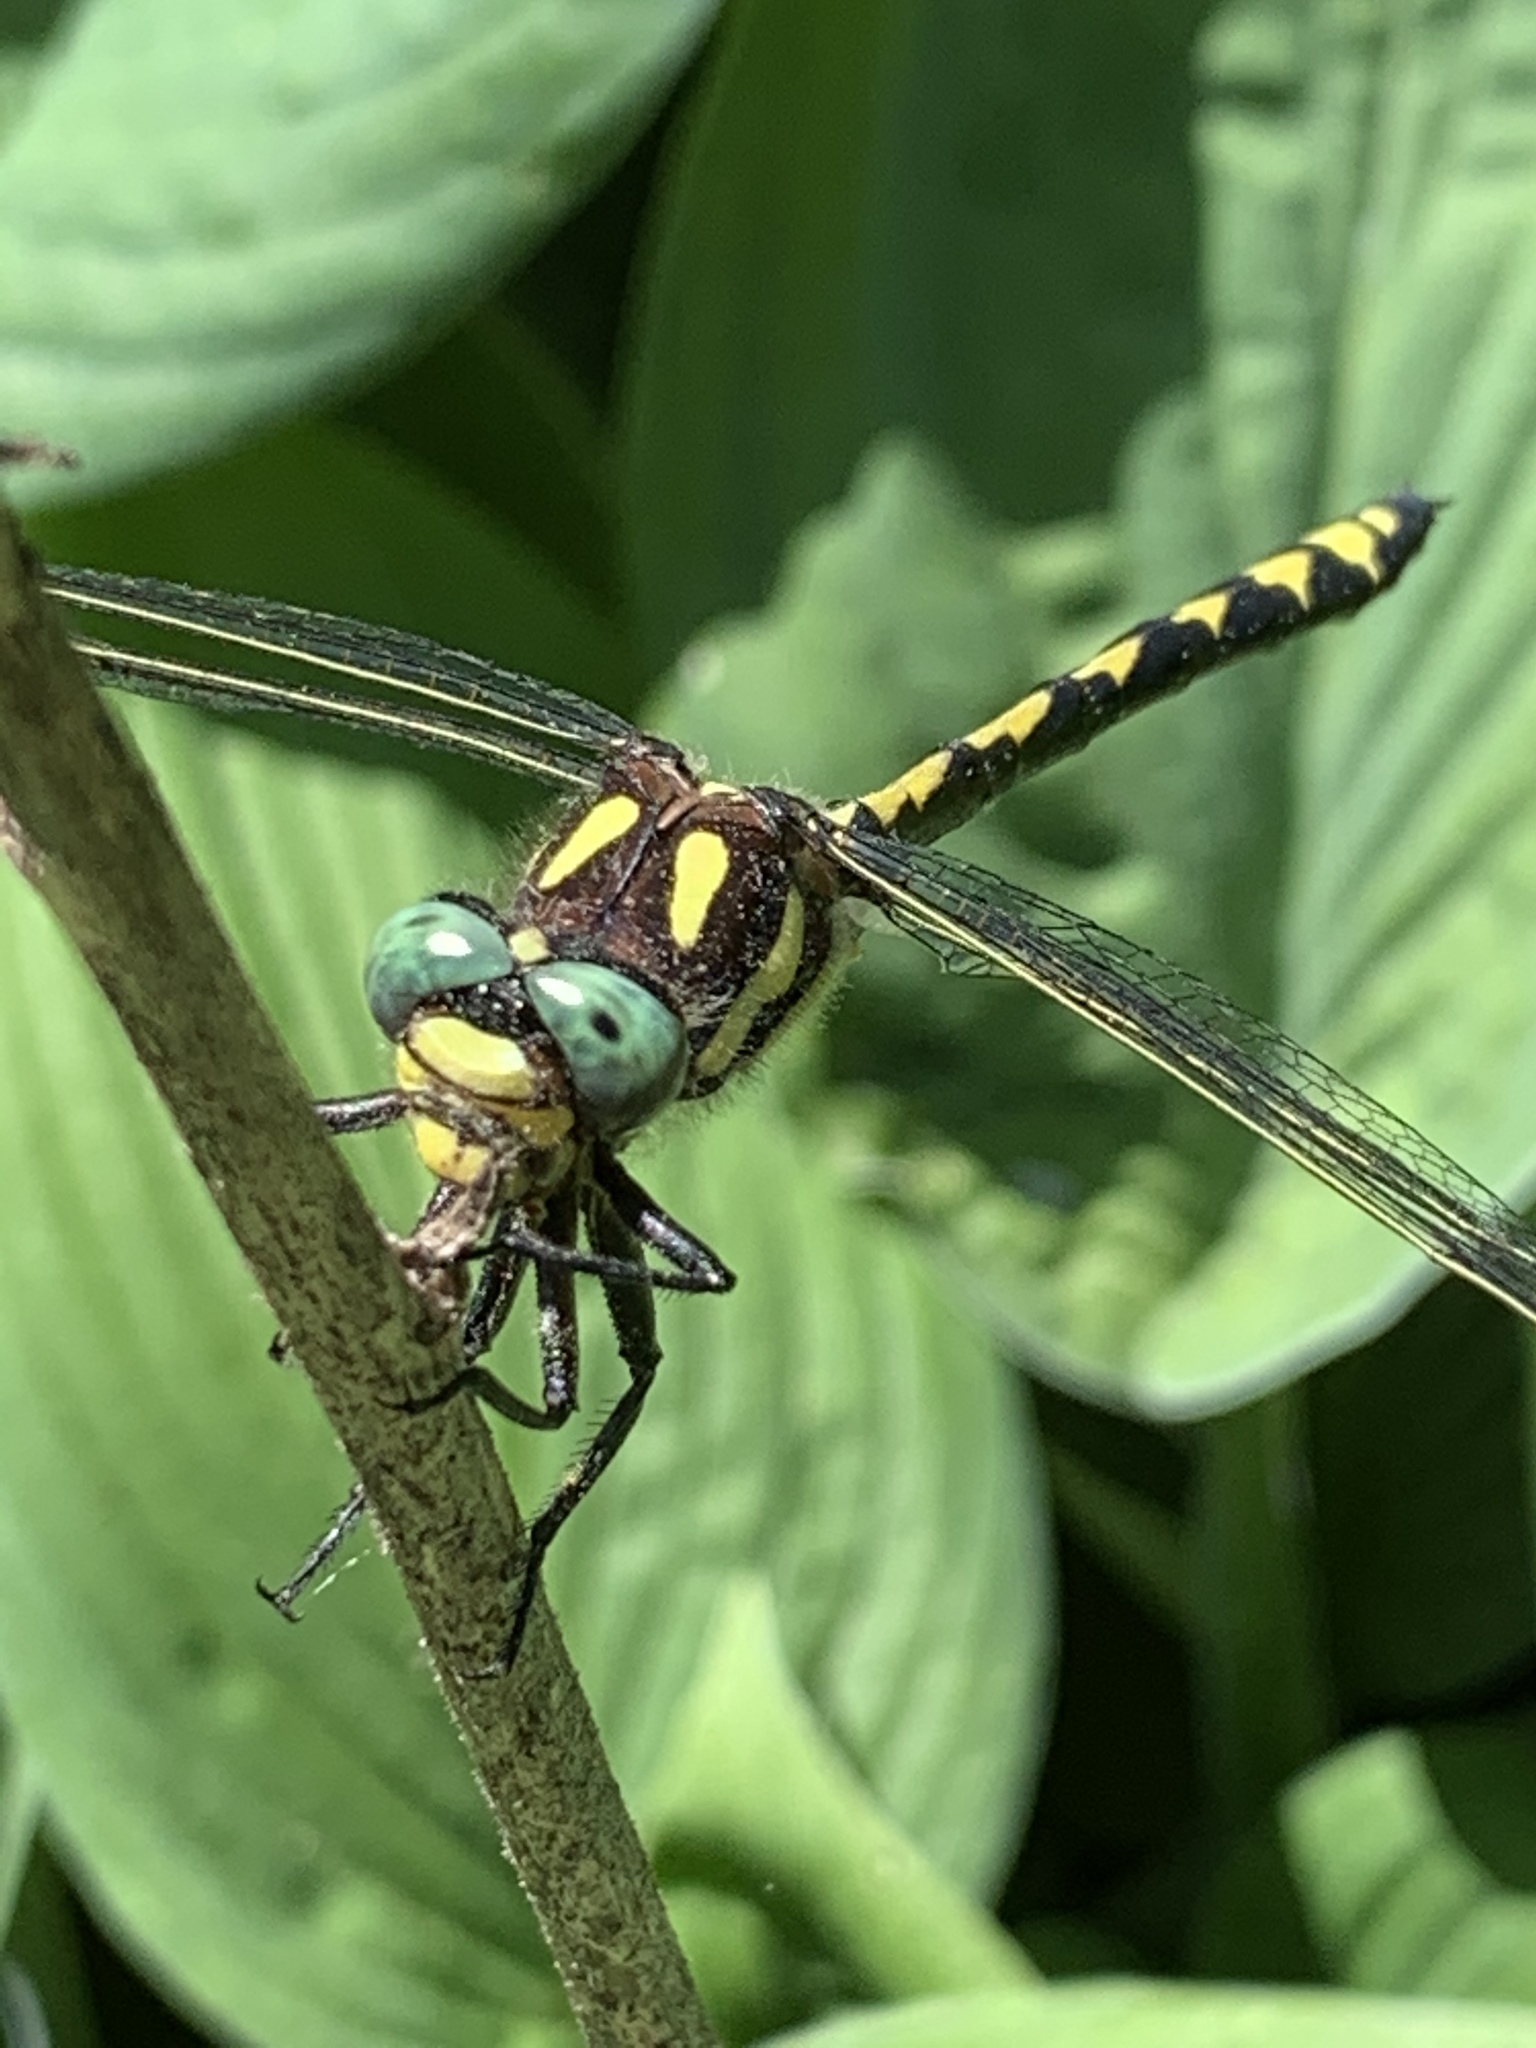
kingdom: Animalia
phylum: Arthropoda
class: Insecta
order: Odonata
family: Cordulegastridae
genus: Cordulegaster
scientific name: Cordulegaster obliqua
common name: Arrowhead spiketail
